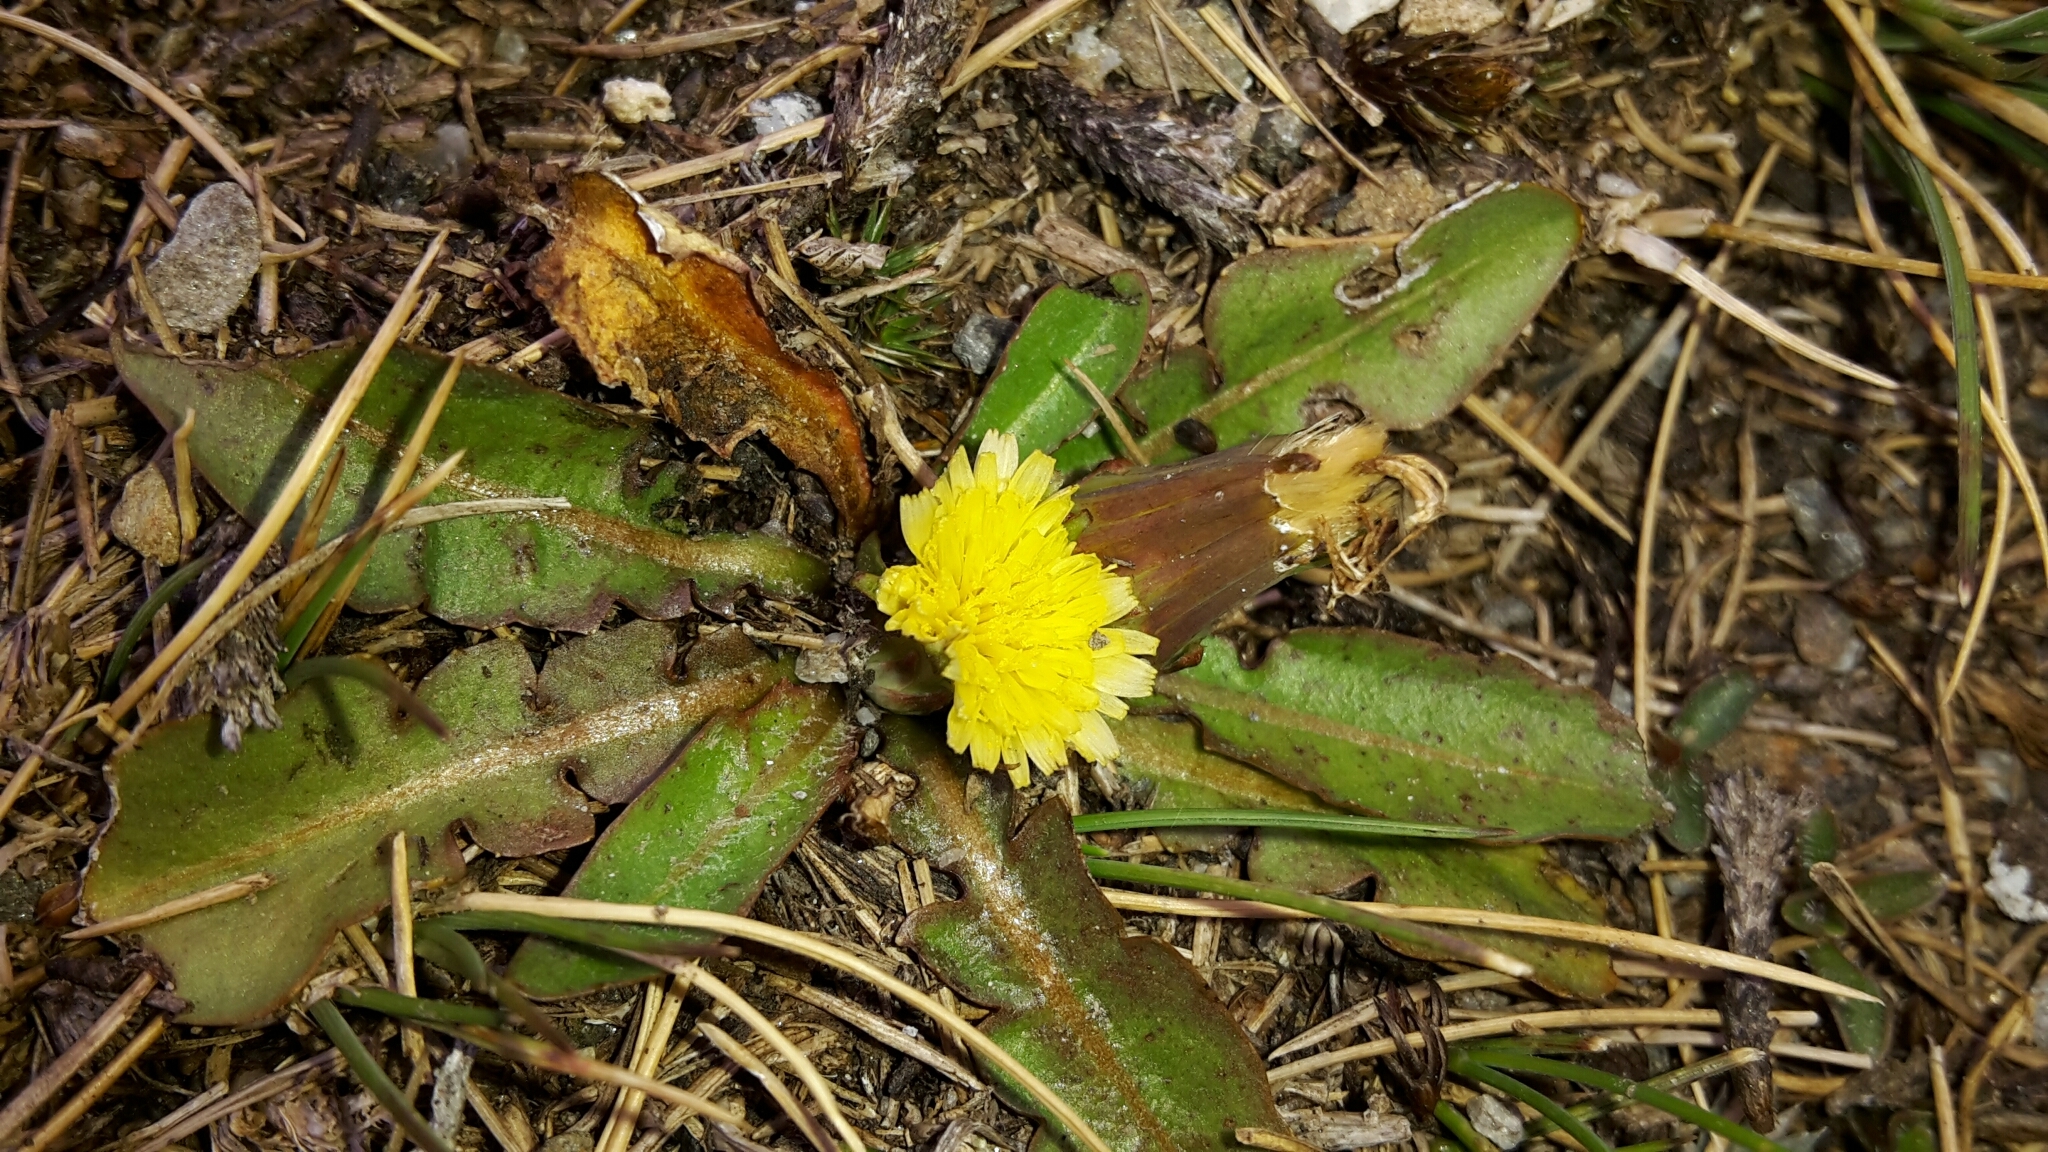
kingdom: Plantae
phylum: Tracheophyta
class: Magnoliopsida
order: Asterales
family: Asteraceae
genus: Taraxacum
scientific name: Taraxacum zealandicum
